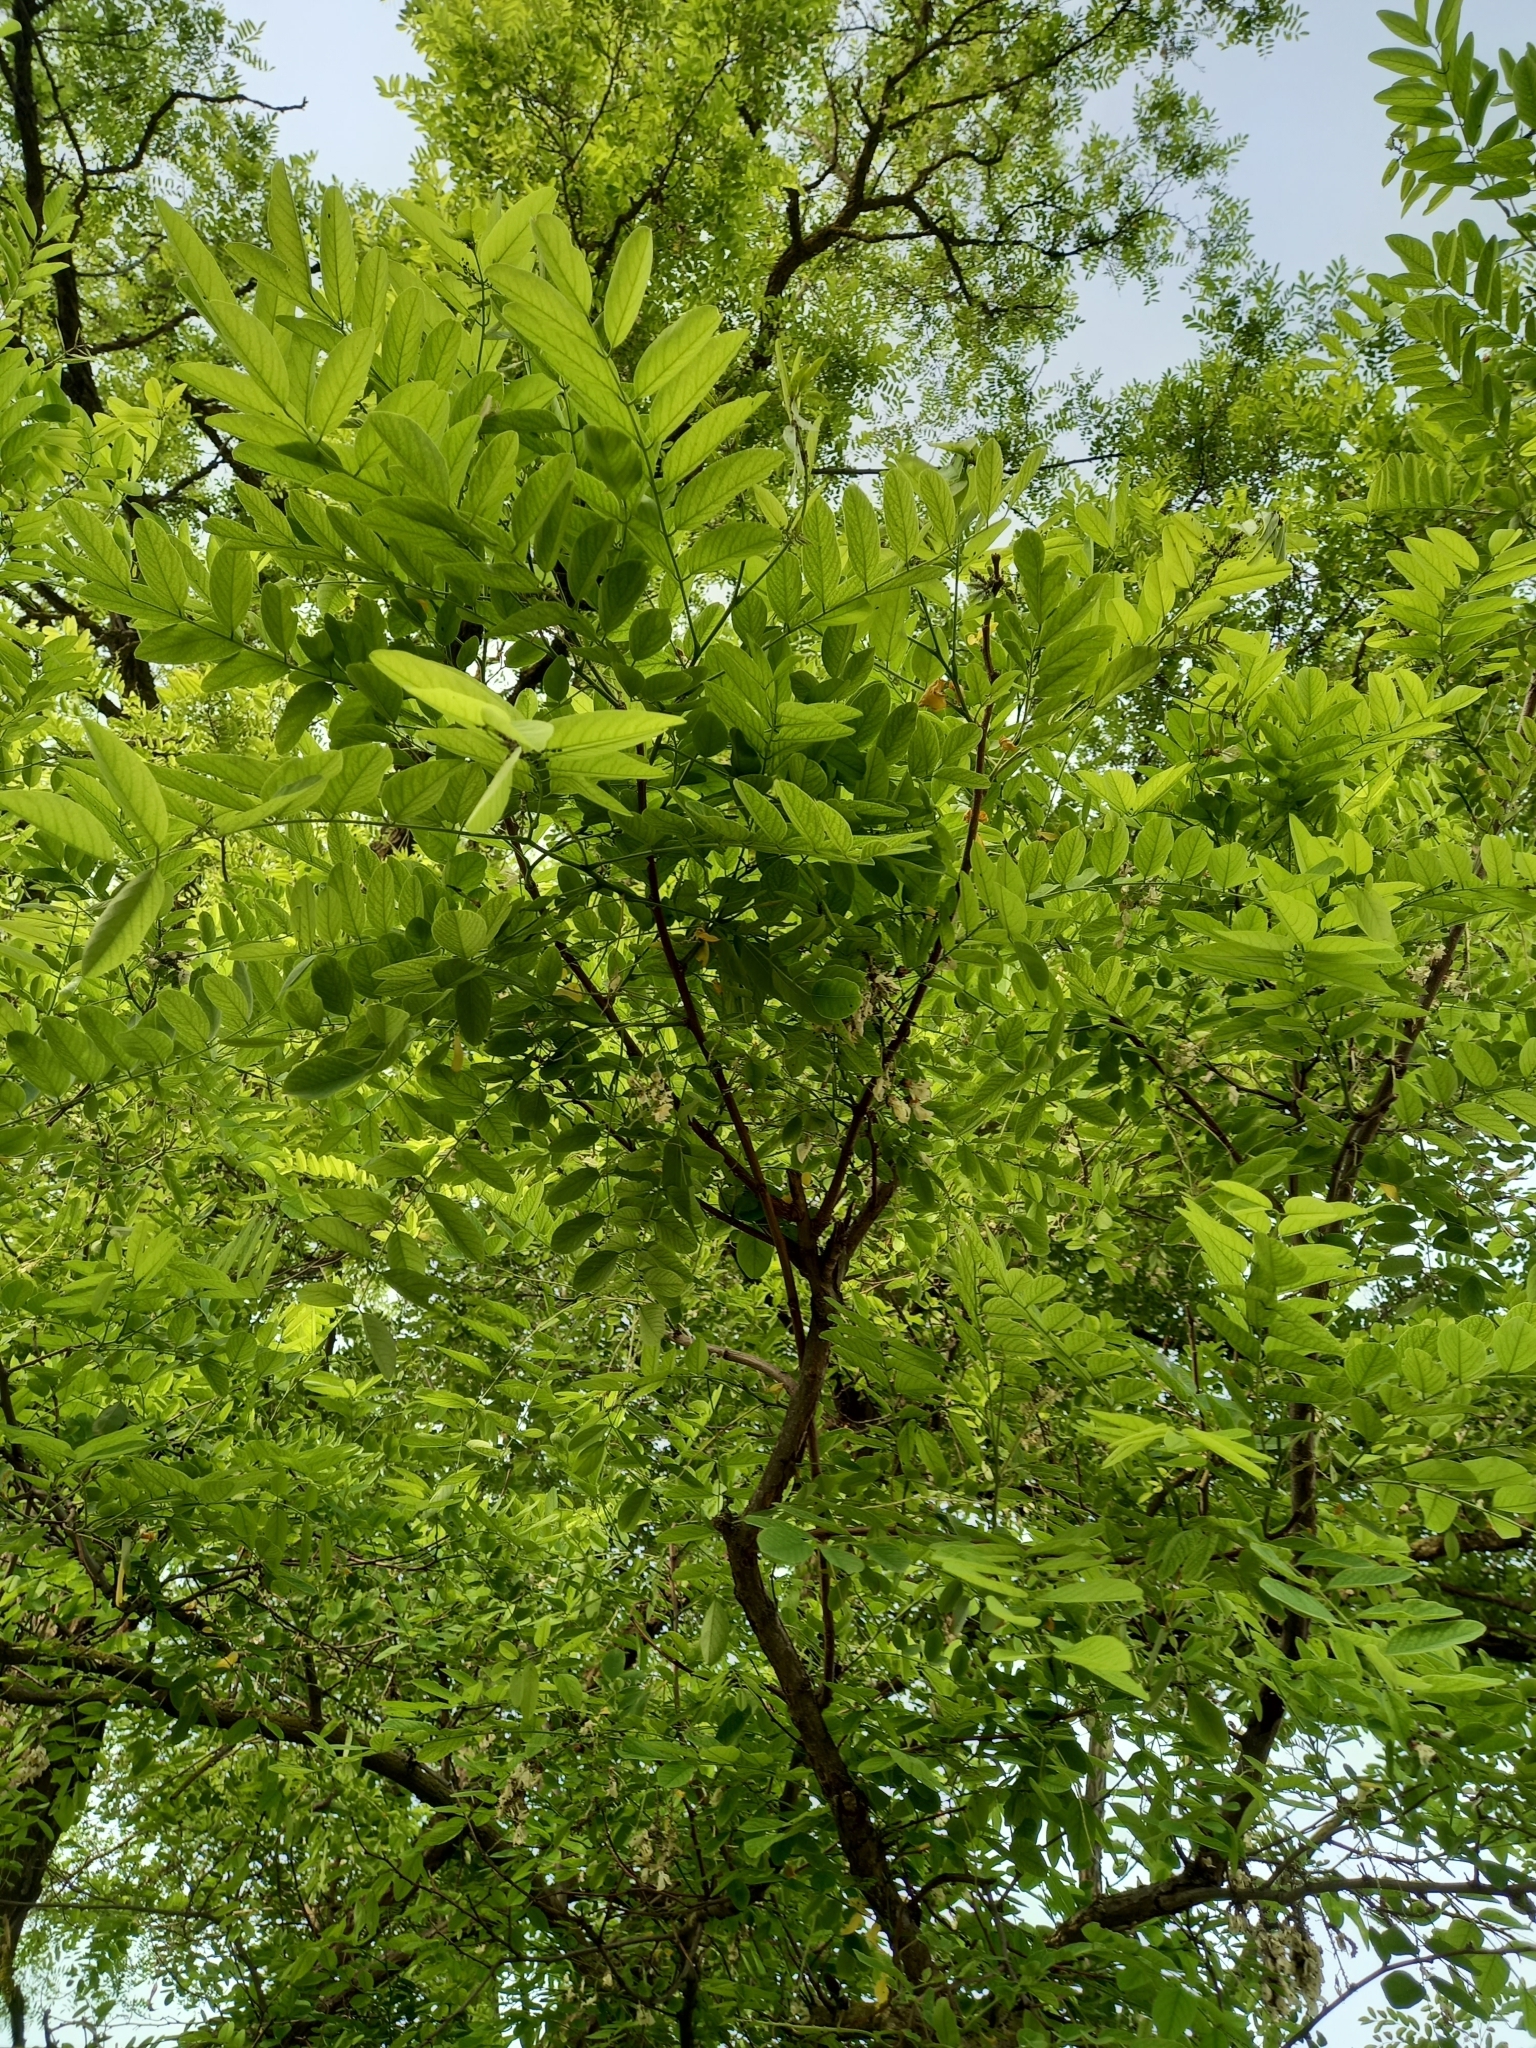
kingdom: Plantae
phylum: Tracheophyta
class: Magnoliopsida
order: Fabales
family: Fabaceae
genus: Robinia
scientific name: Robinia pseudoacacia
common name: Black locust
